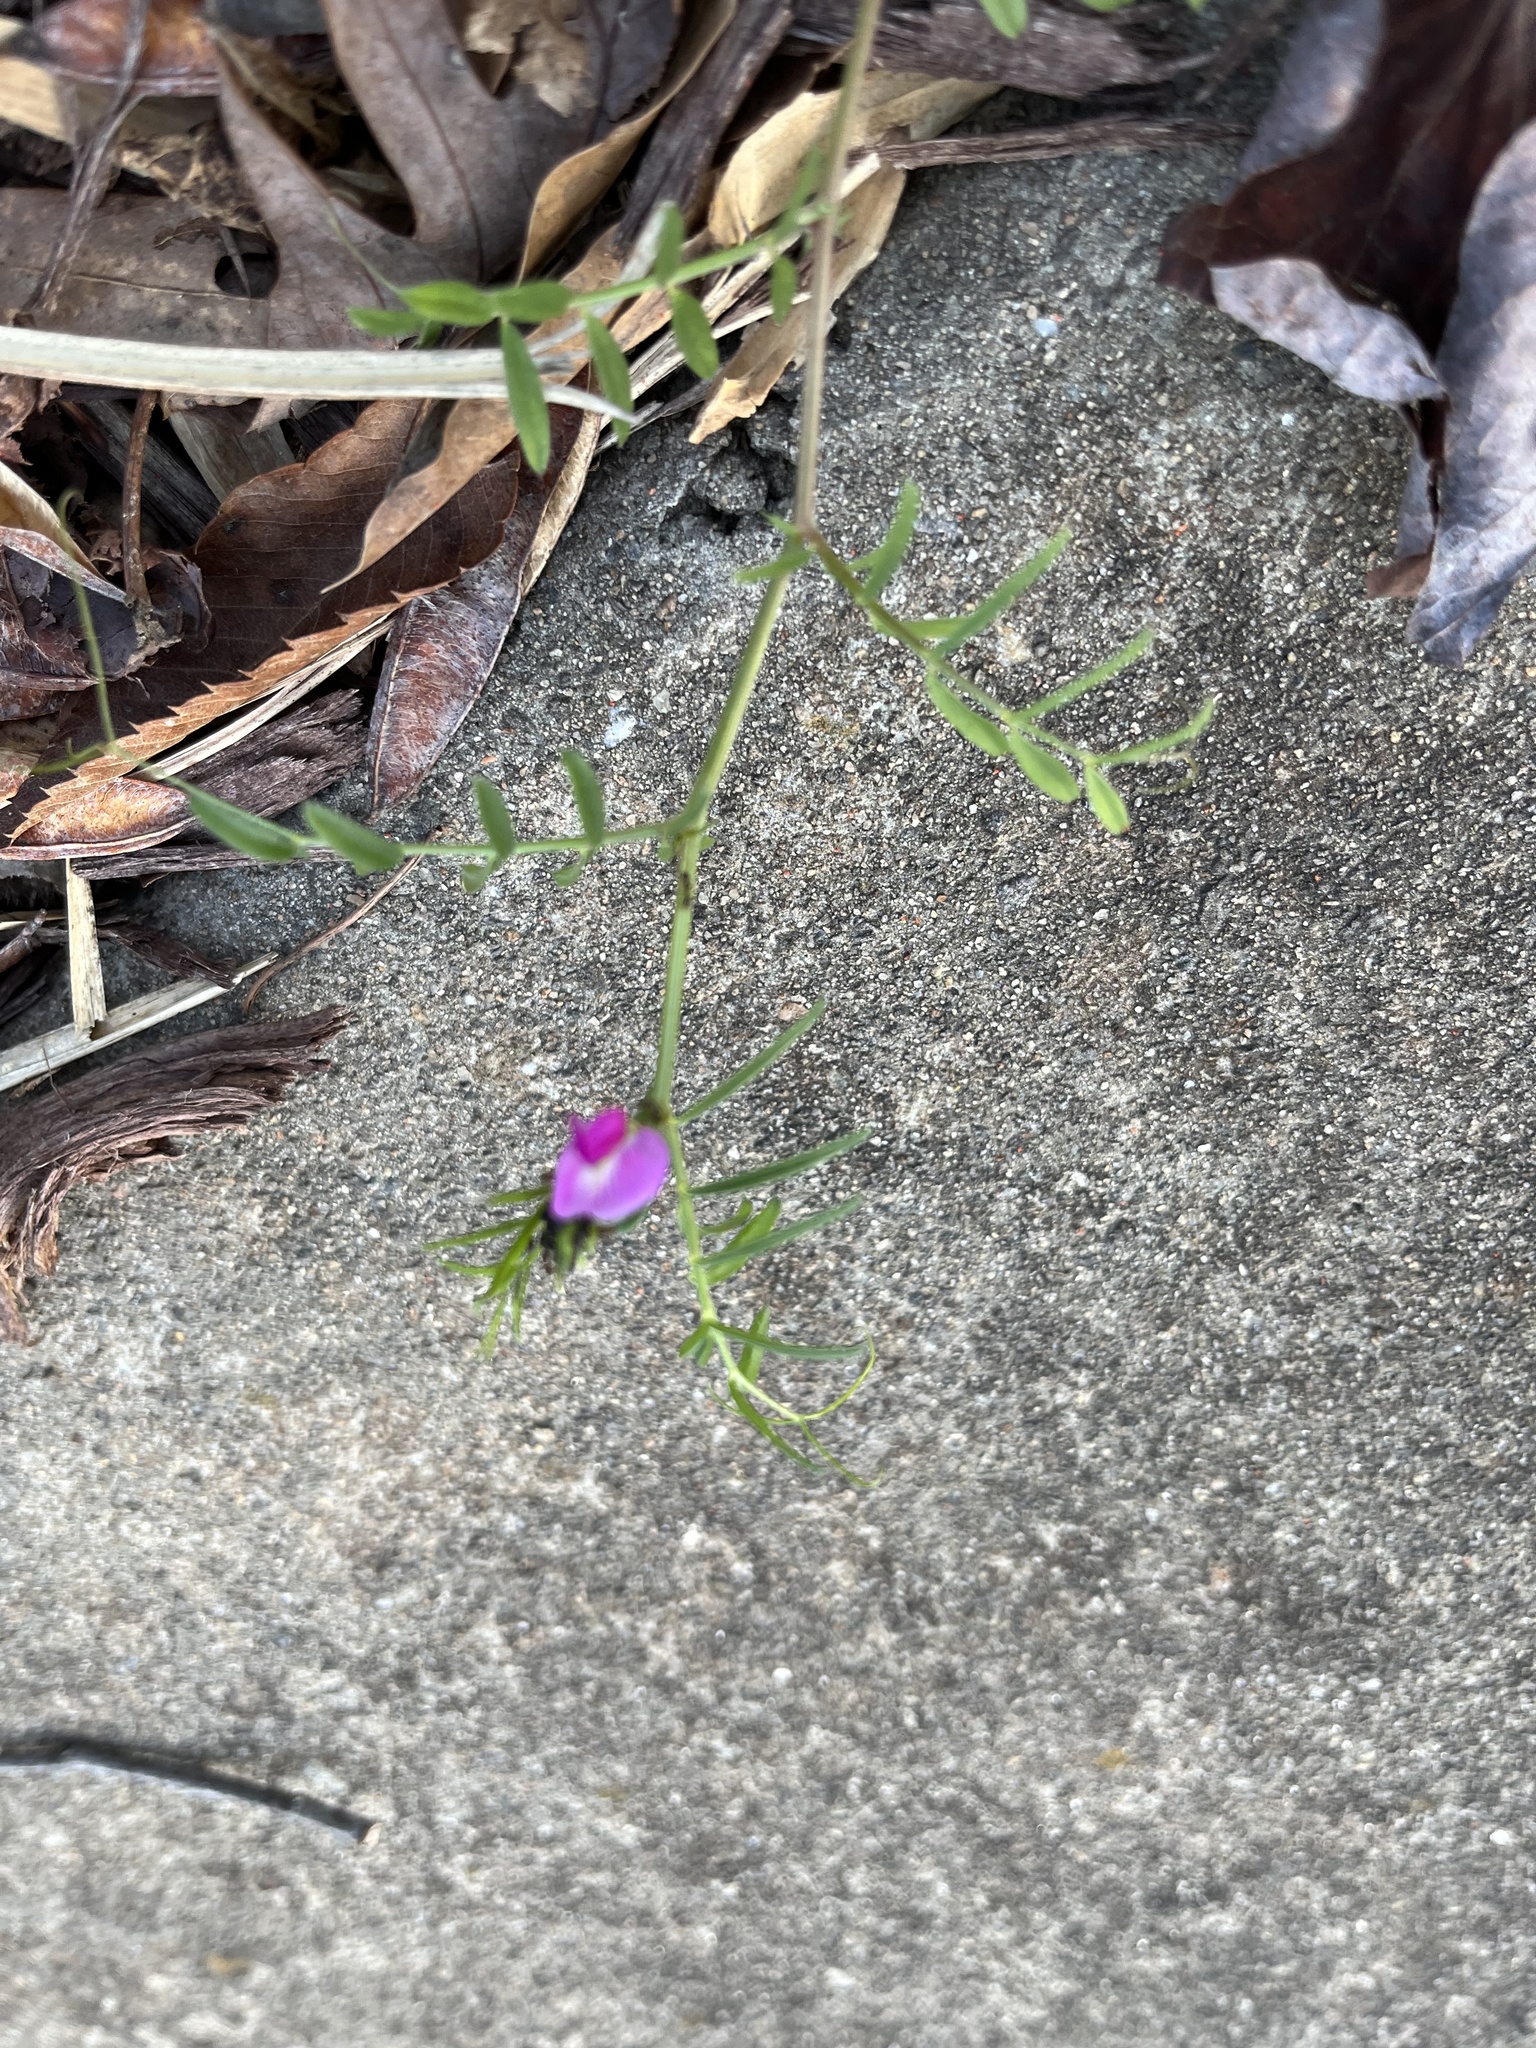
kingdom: Plantae
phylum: Tracheophyta
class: Magnoliopsida
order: Fabales
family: Fabaceae
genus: Vicia
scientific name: Vicia sativa
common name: Garden vetch
